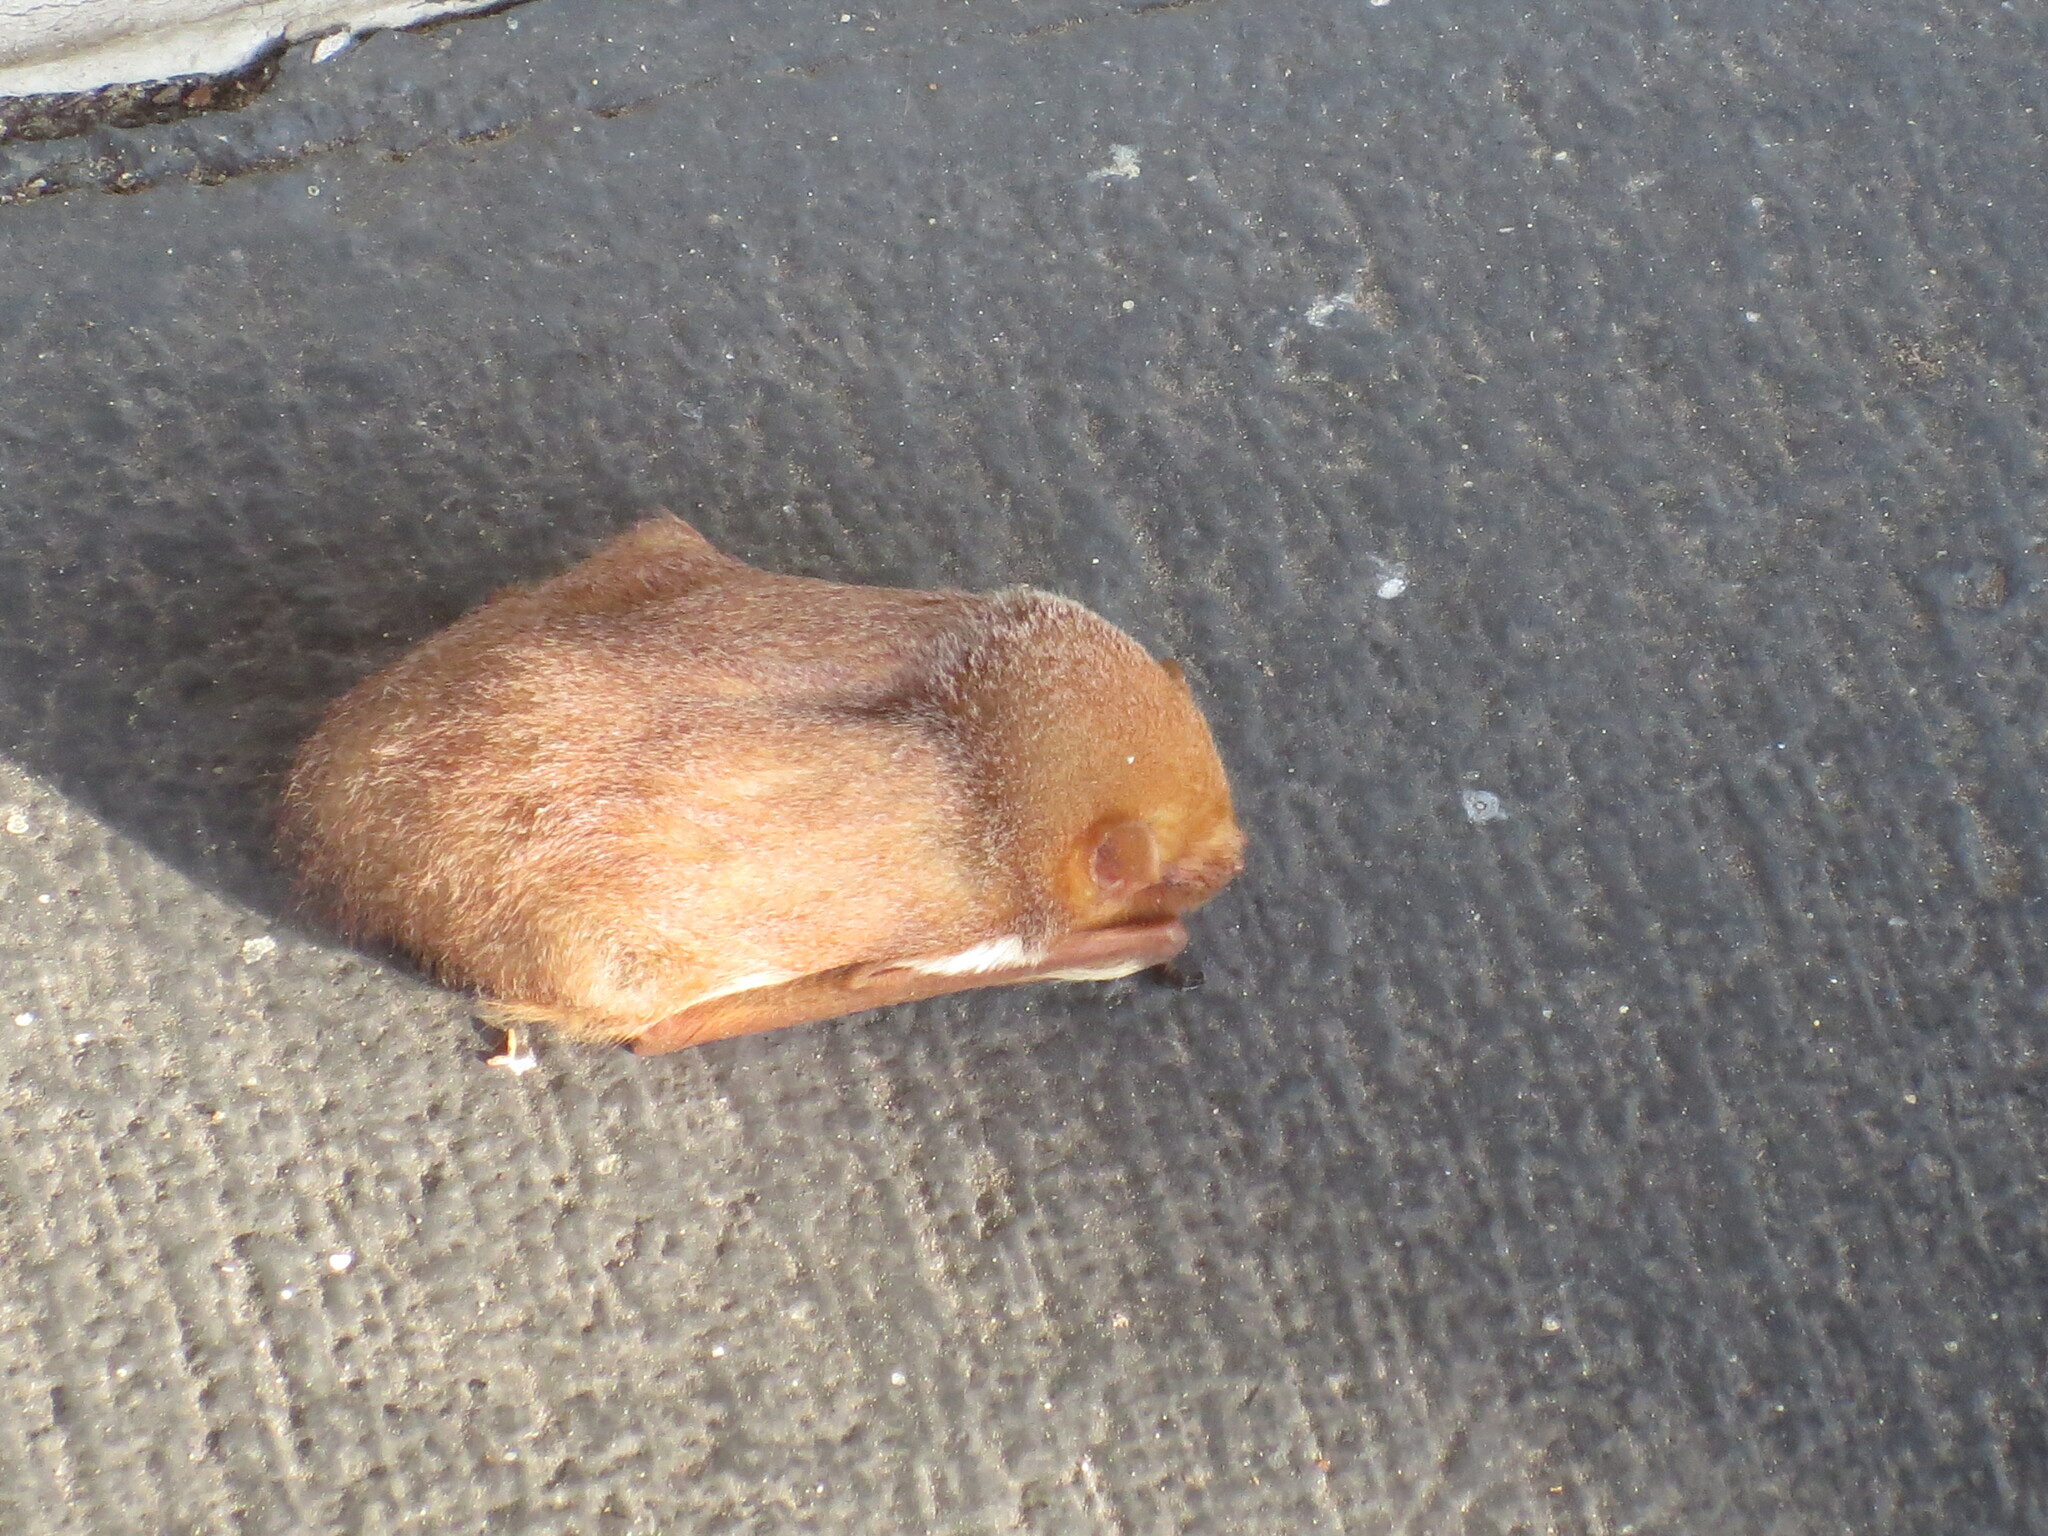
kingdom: Animalia
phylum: Chordata
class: Mammalia
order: Chiroptera
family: Vespertilionidae
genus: Lasiurus
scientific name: Lasiurus borealis
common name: Eastern red bat
